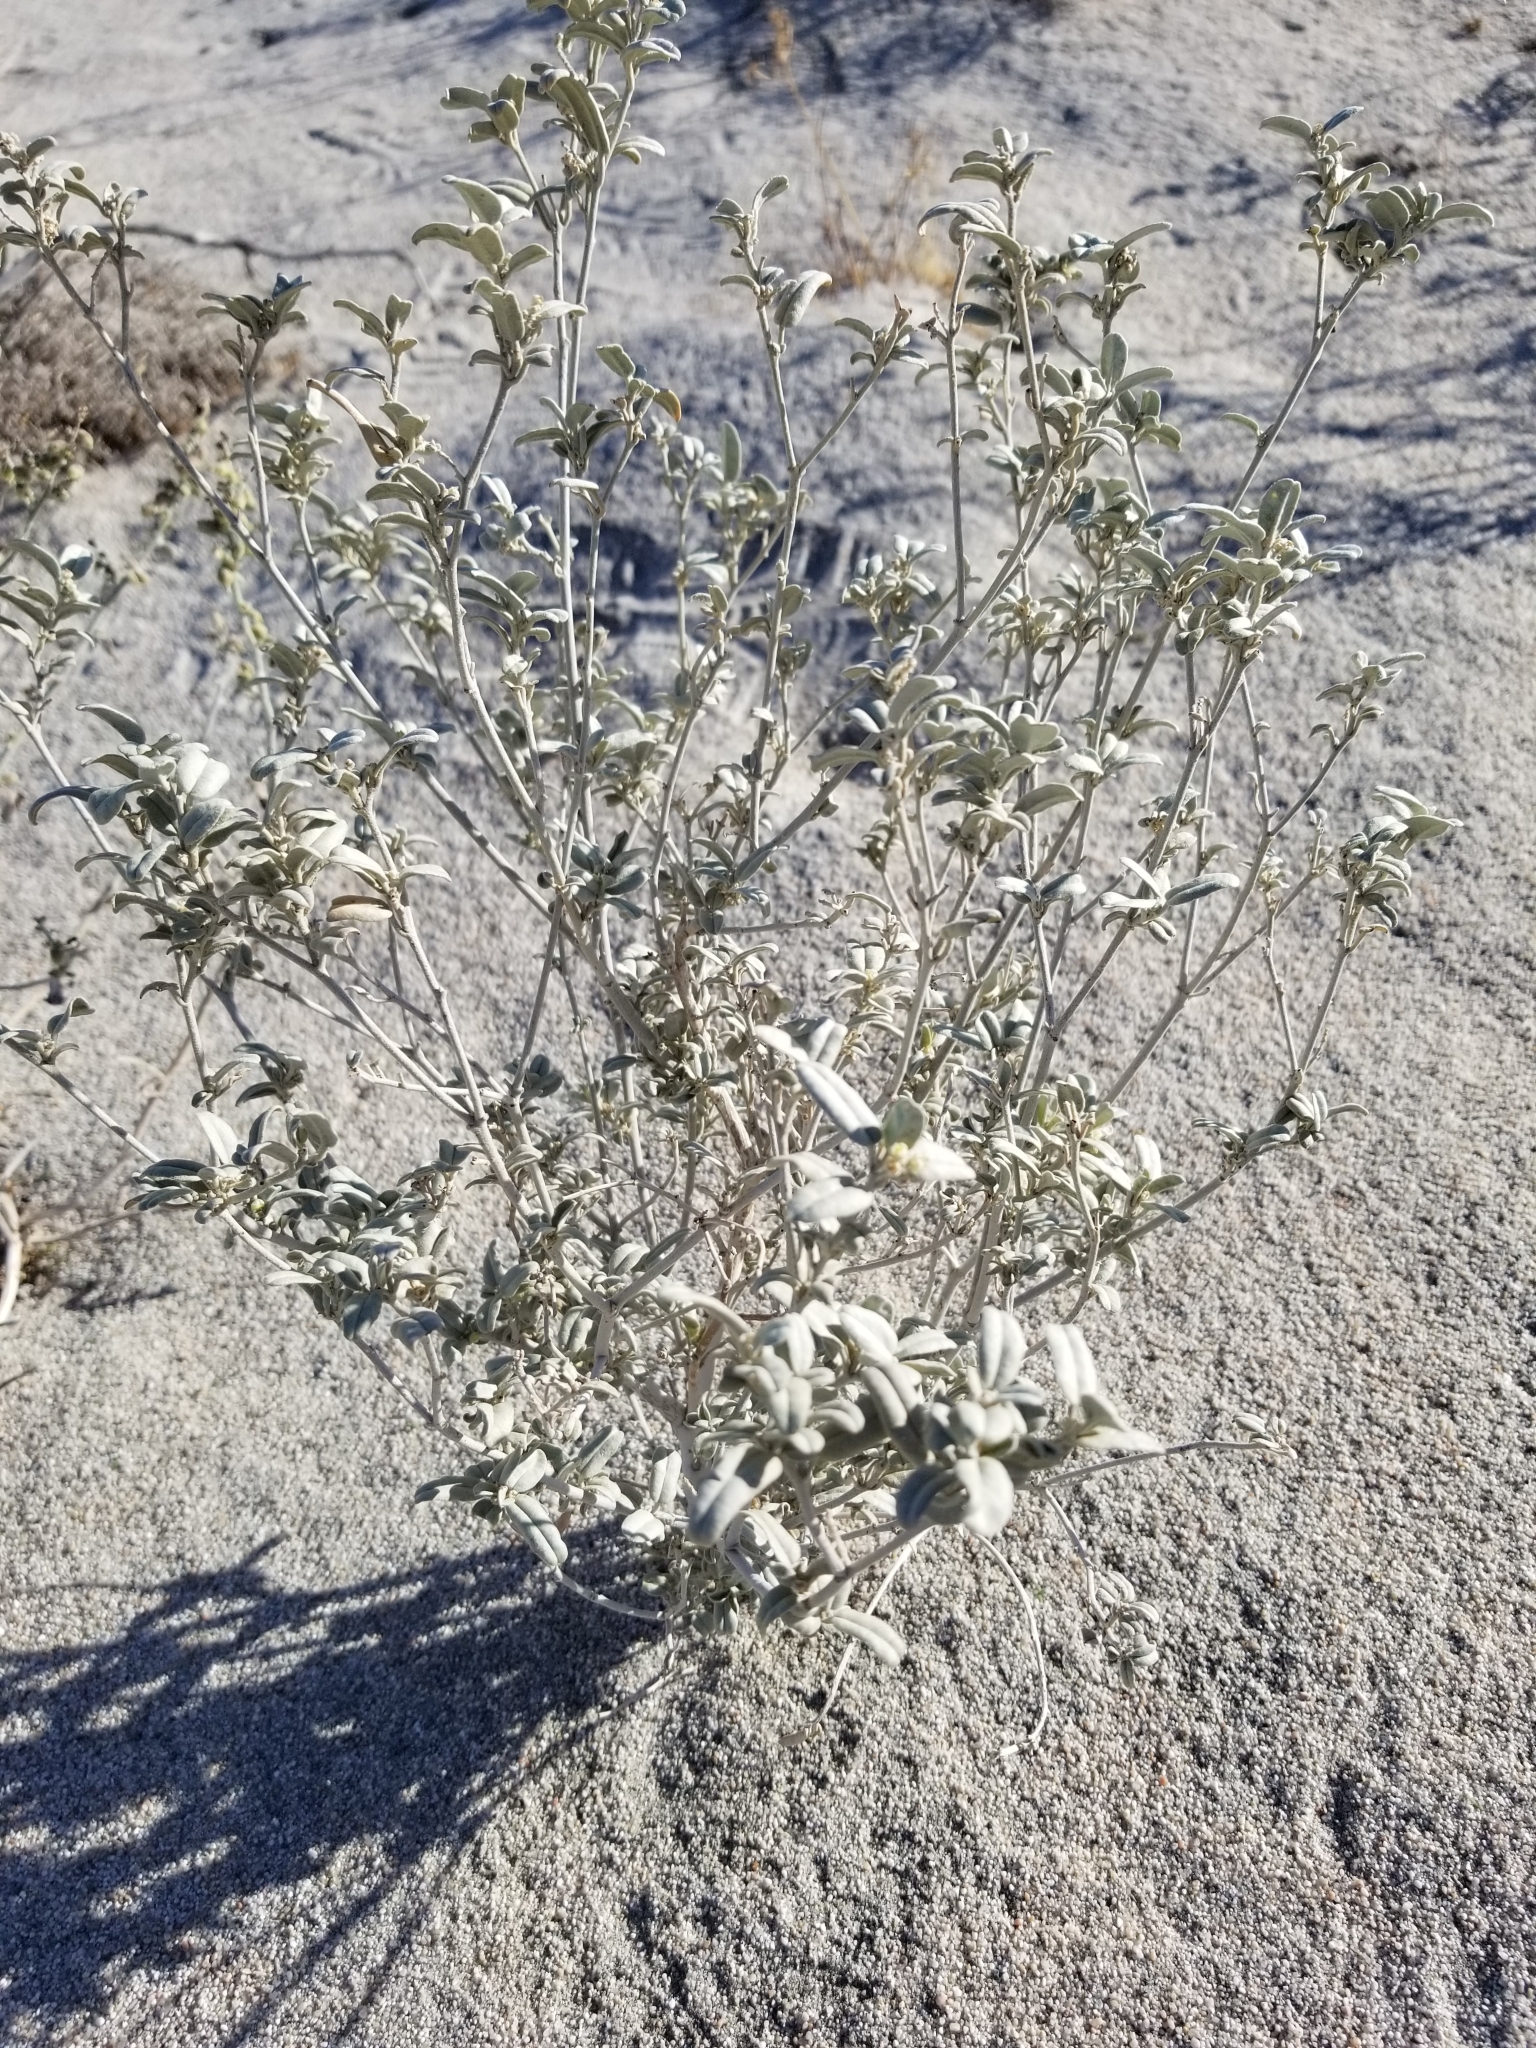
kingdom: Plantae
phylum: Tracheophyta
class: Magnoliopsida
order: Malpighiales
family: Euphorbiaceae
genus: Croton
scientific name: Croton californicus
